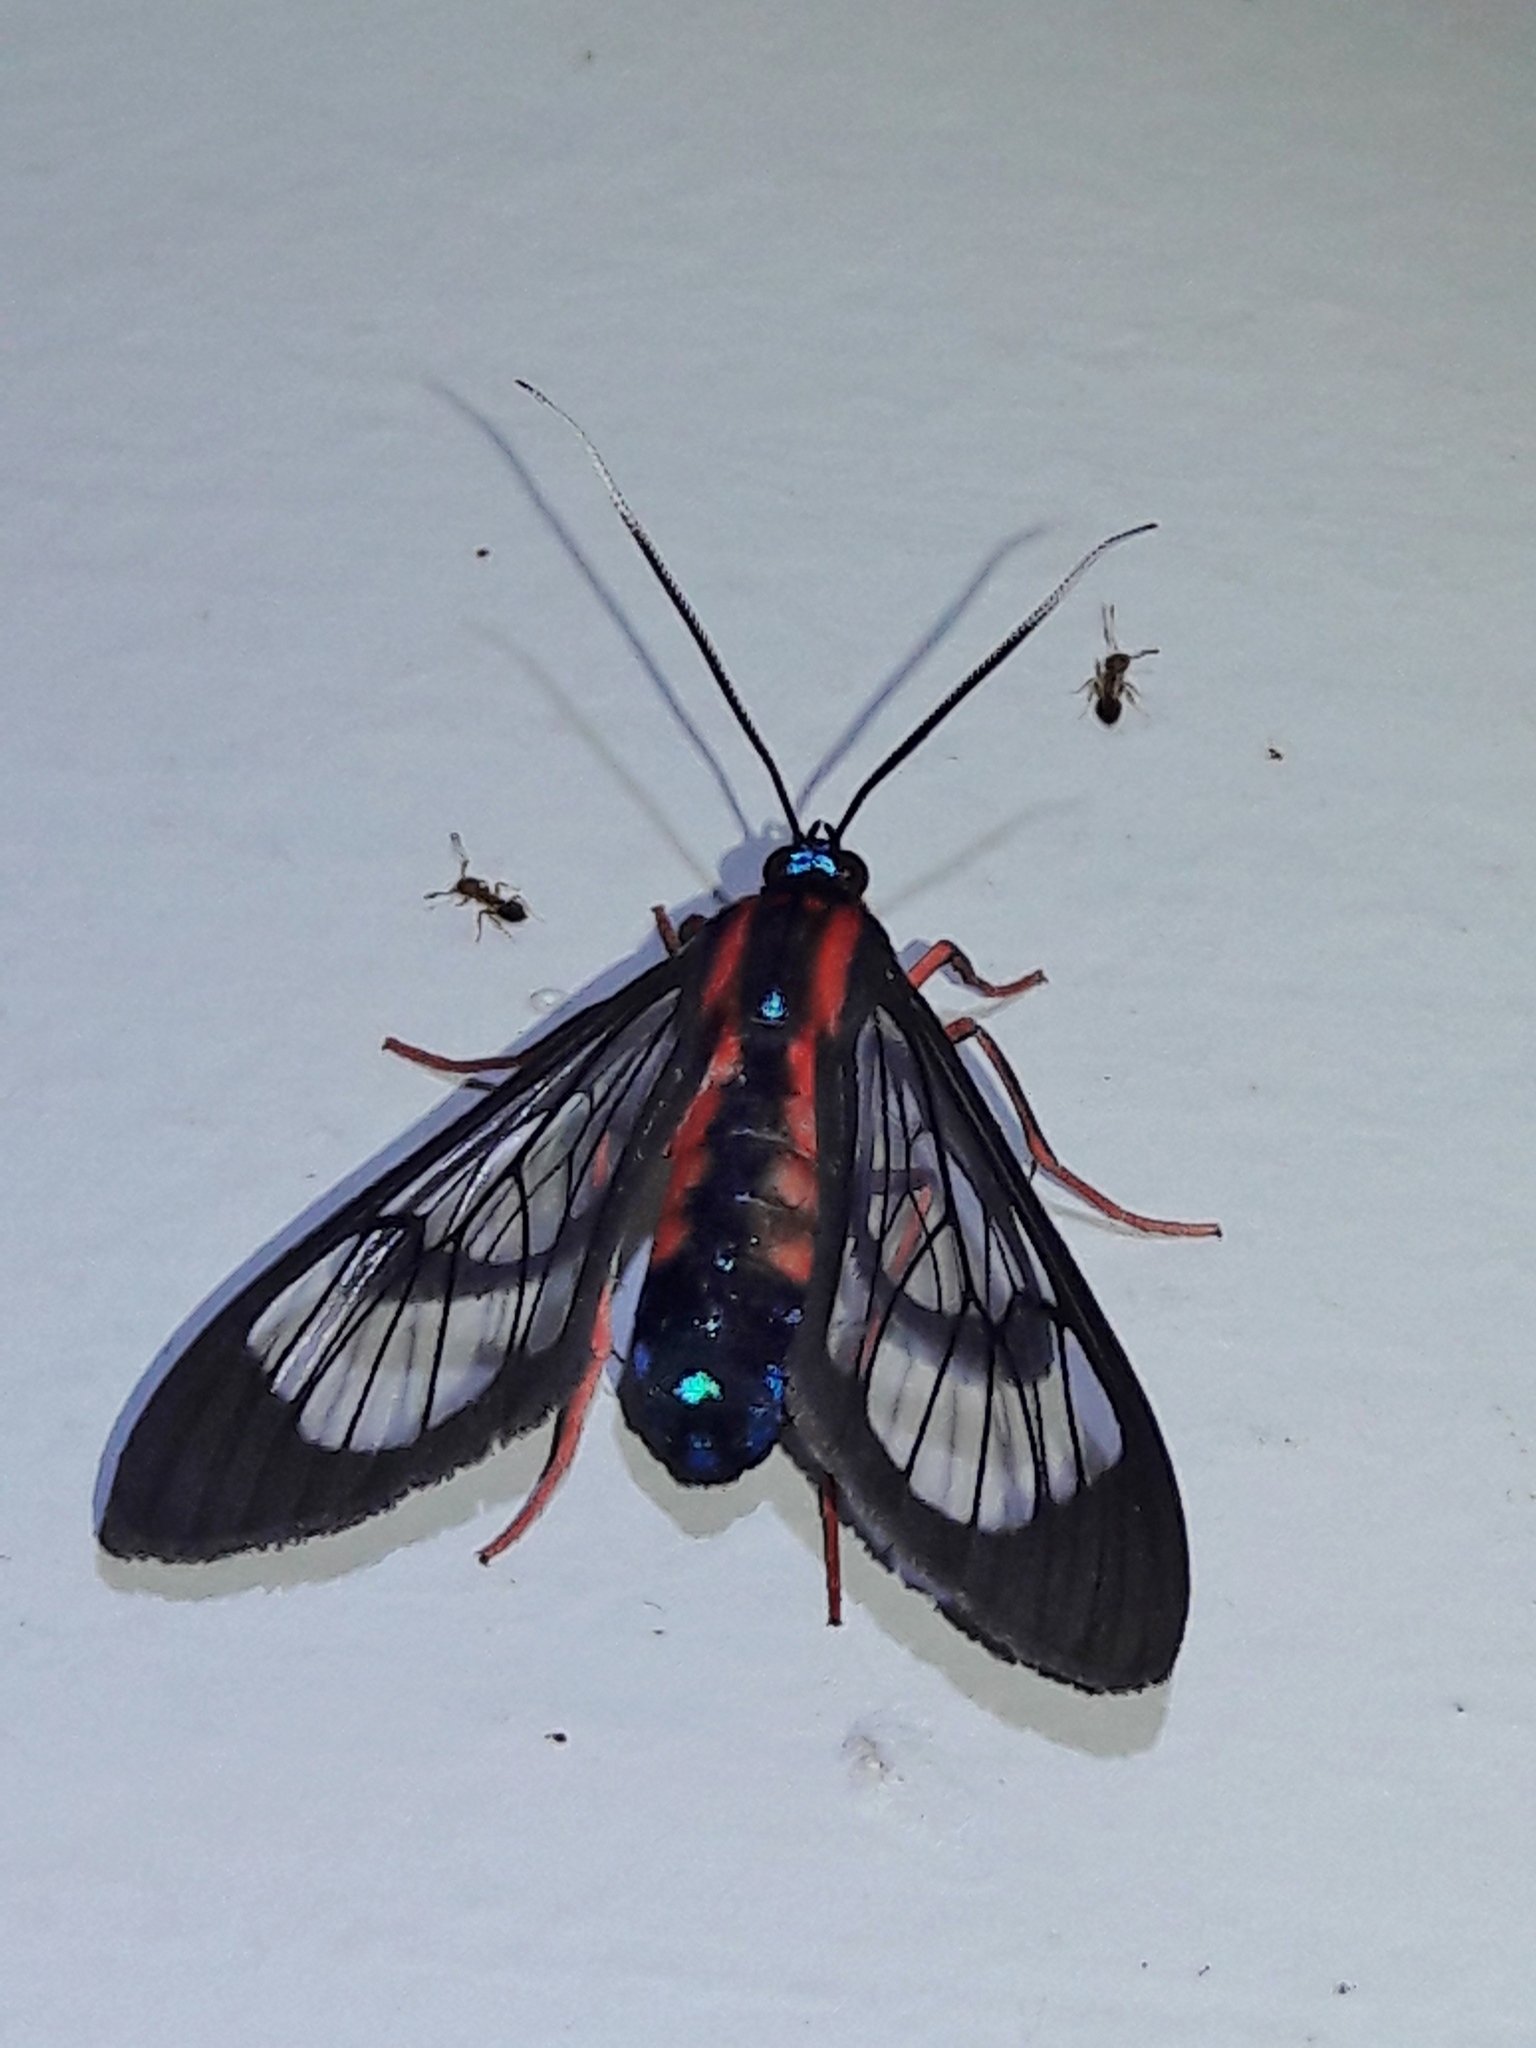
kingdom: Animalia
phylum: Arthropoda
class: Insecta
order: Lepidoptera
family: Erebidae
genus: Cosmosoma
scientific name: Cosmosoma auge
